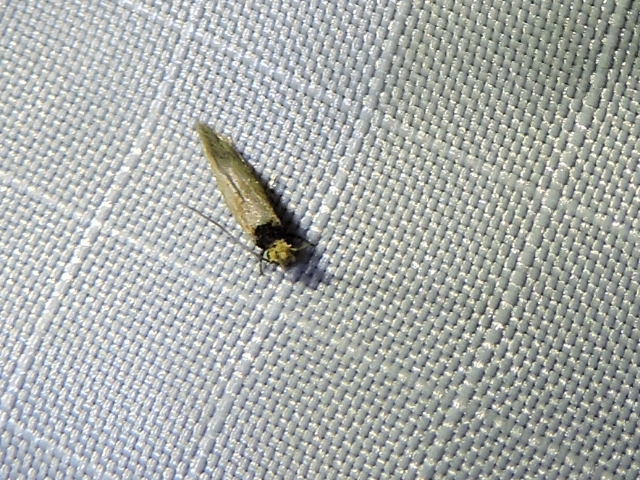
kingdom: Animalia
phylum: Arthropoda
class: Insecta
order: Lepidoptera
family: Tineidae
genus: Tinea
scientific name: Tinea apicimaculella
